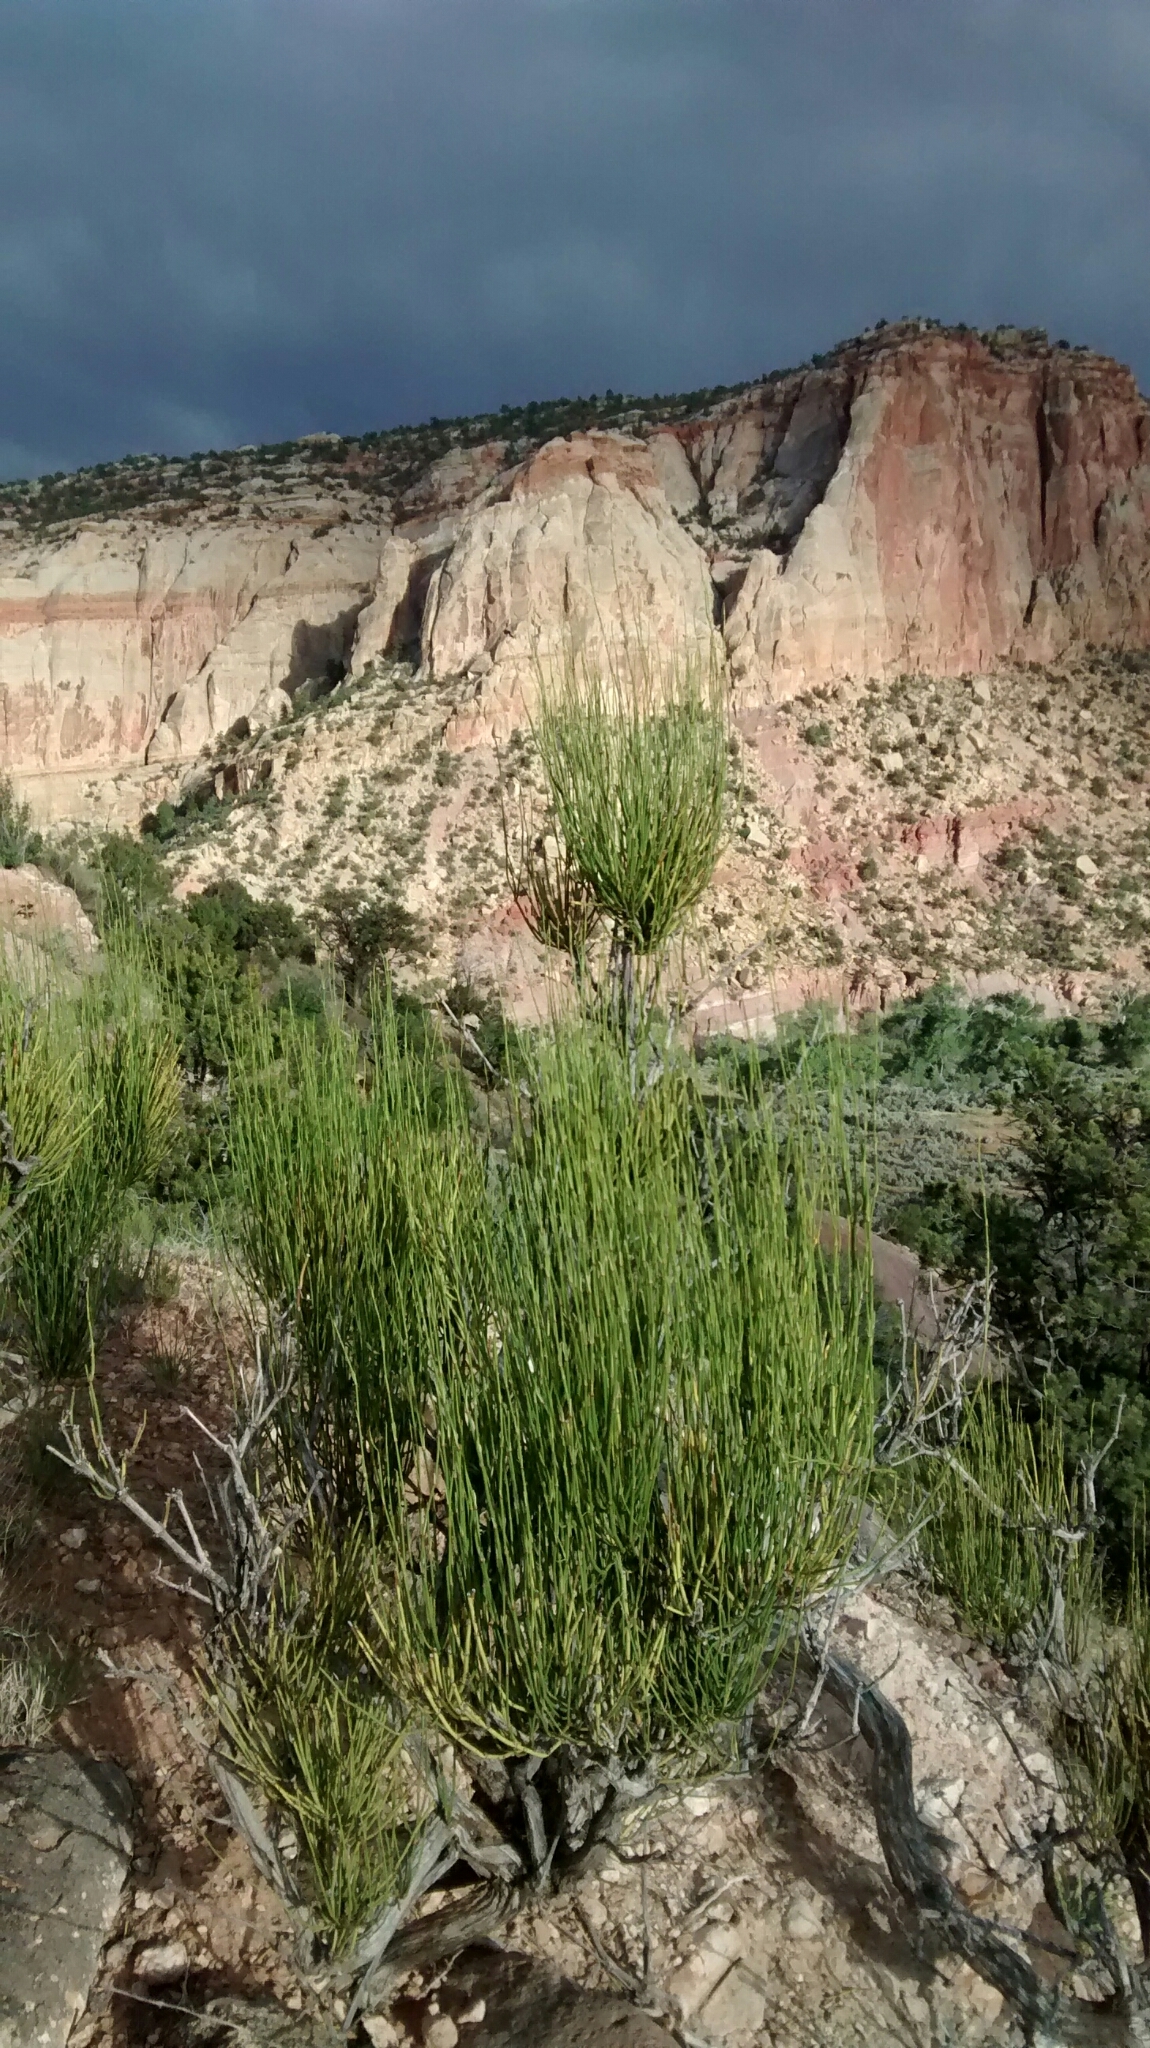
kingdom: Plantae
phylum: Tracheophyta
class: Gnetopsida
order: Ephedrales
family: Ephedraceae
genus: Ephedra
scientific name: Ephedra viridis
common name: Green ephedra
